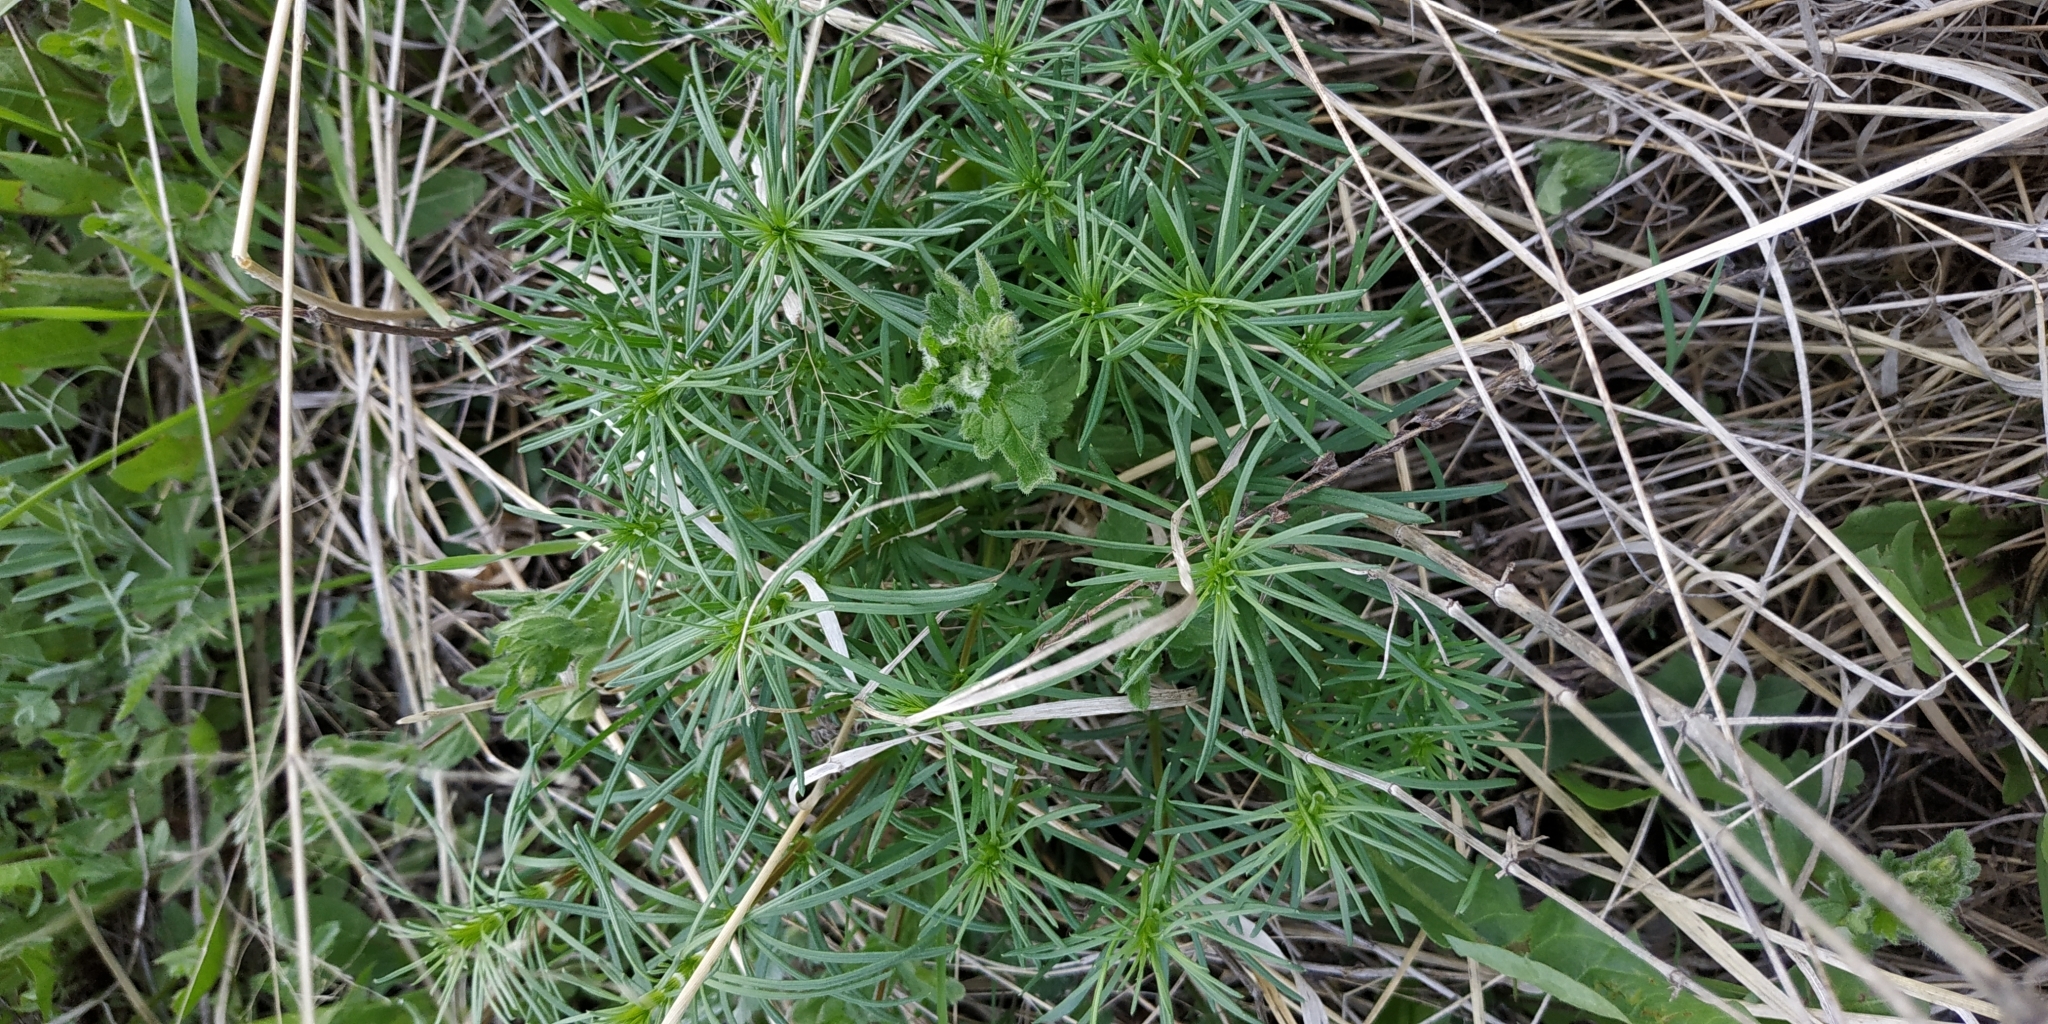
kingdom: Plantae
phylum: Tracheophyta
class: Magnoliopsida
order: Gentianales
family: Rubiaceae
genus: Galium
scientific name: Galium verum
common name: Lady's bedstraw
